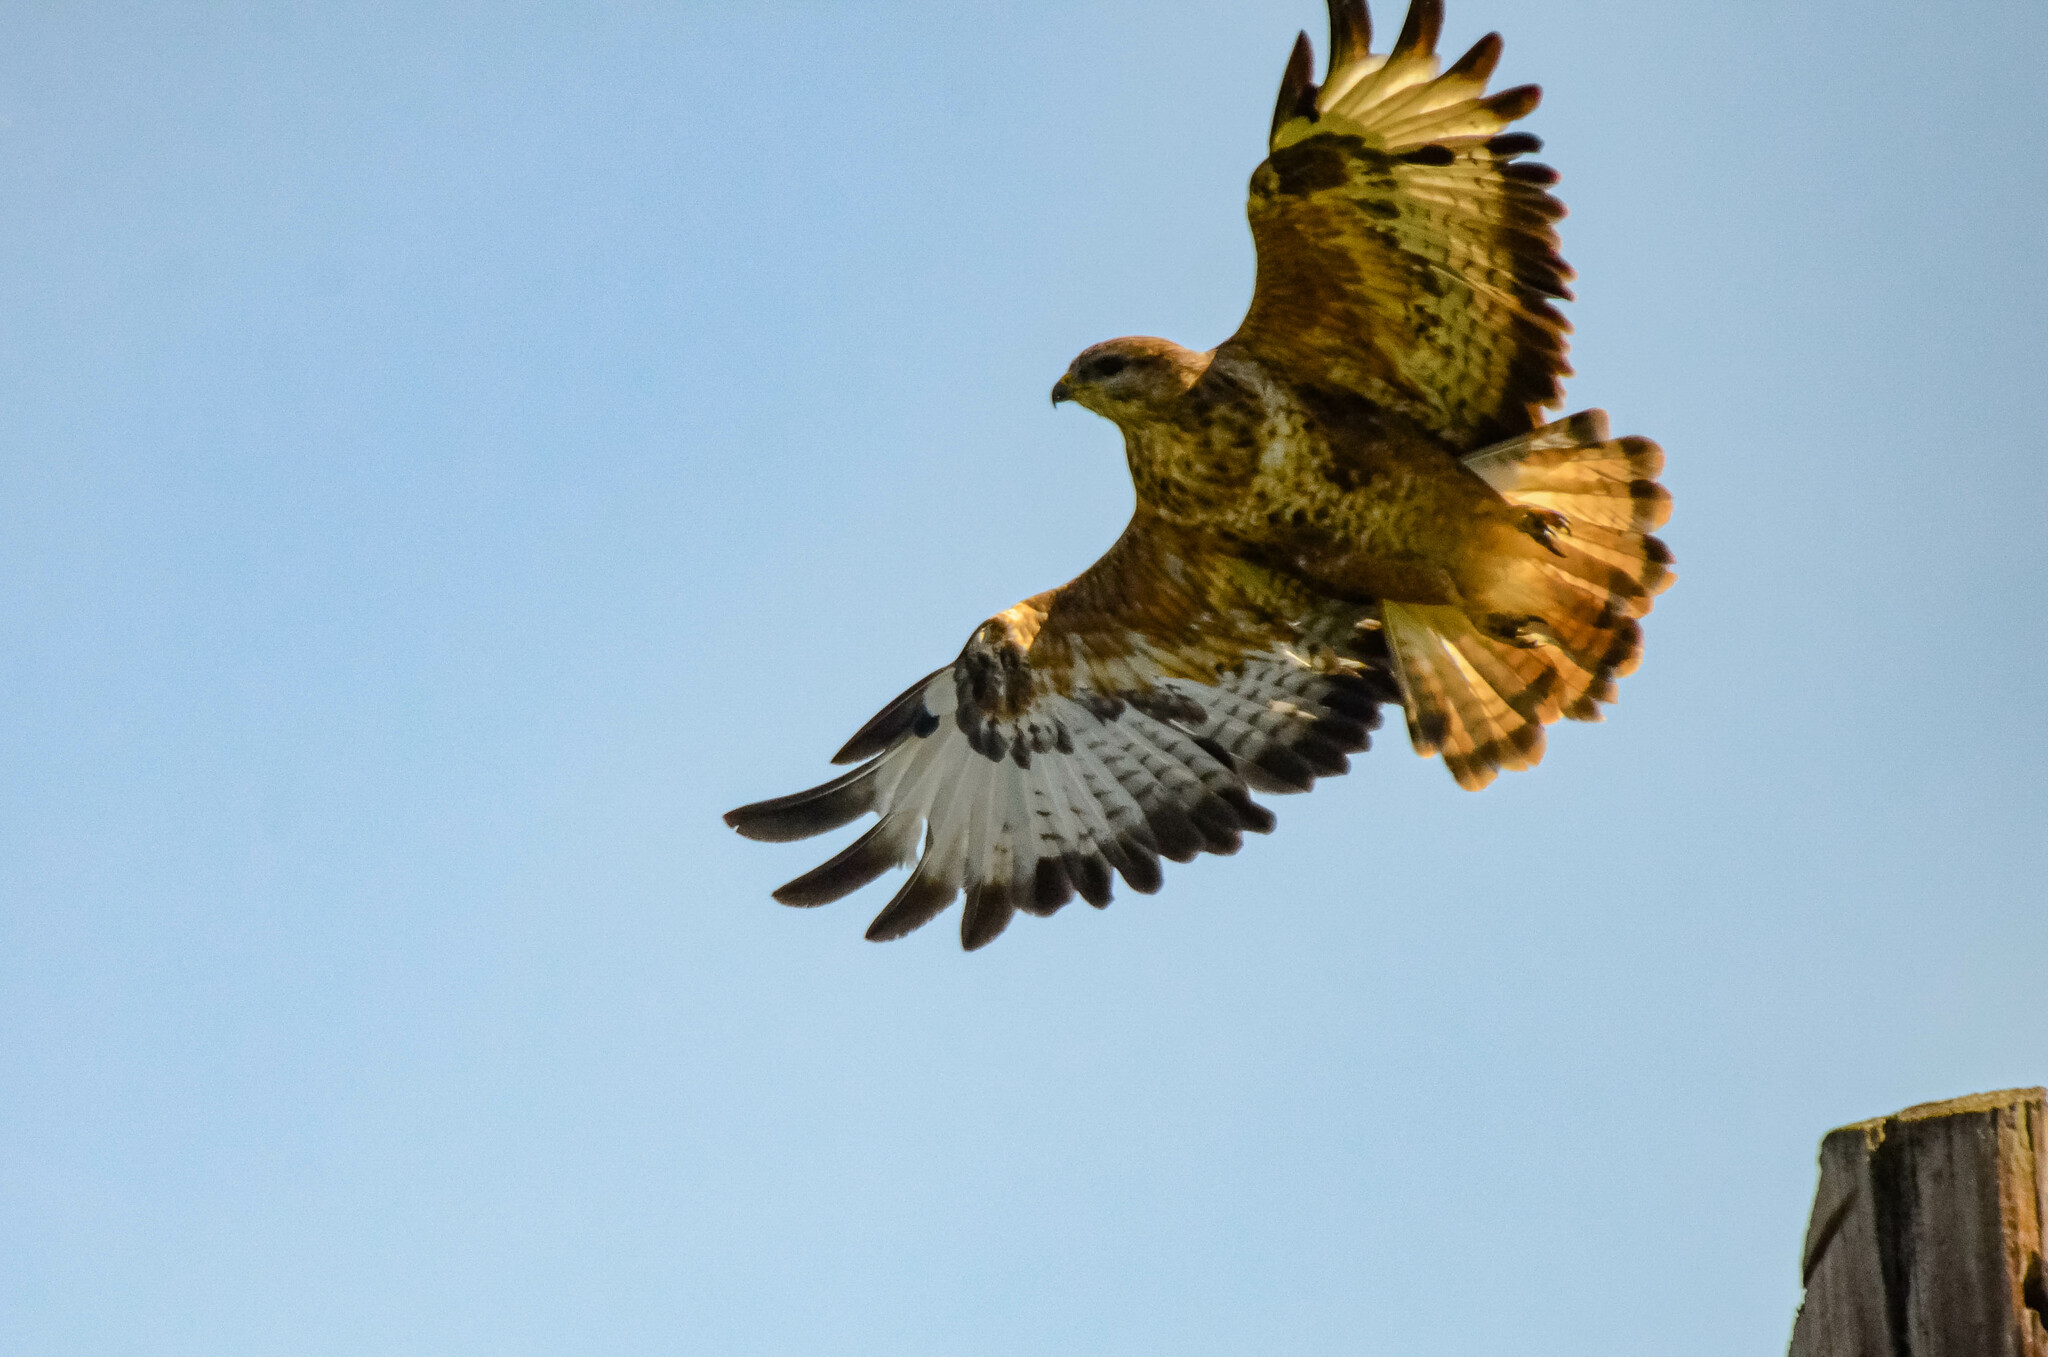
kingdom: Animalia
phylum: Chordata
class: Aves
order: Accipitriformes
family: Accipitridae
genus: Buteo
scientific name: Buteo buteo
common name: Common buzzard
